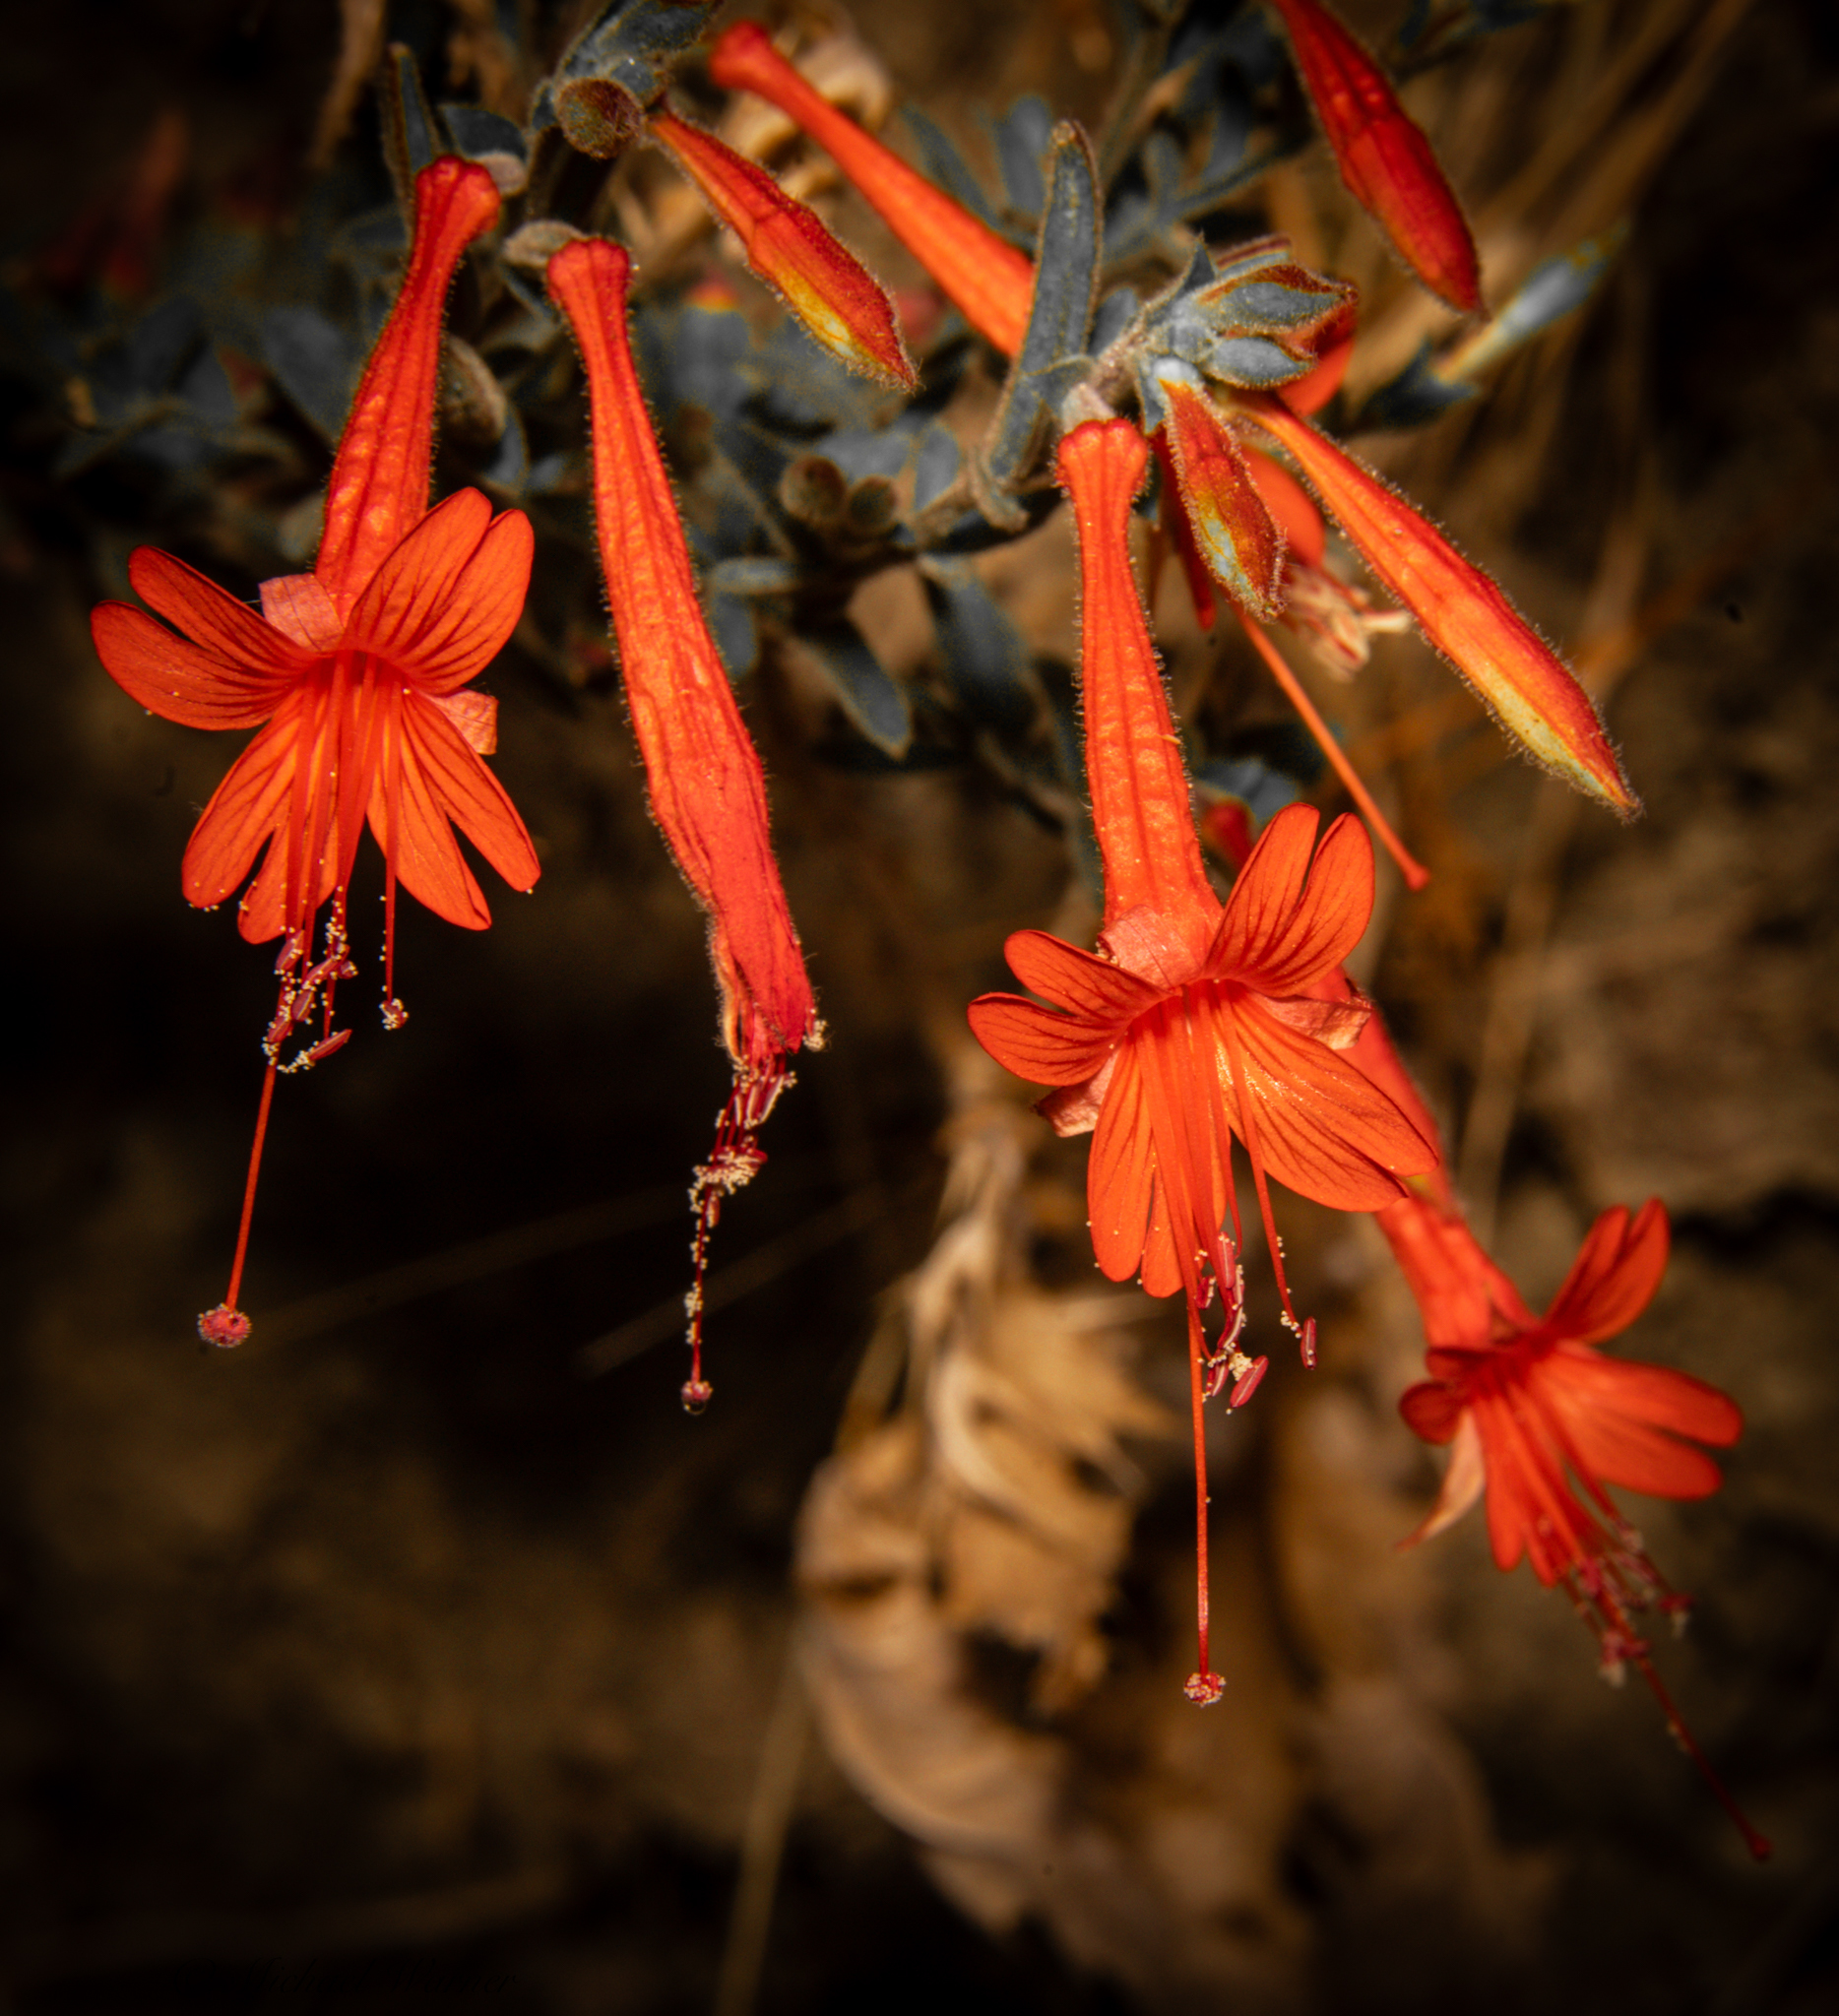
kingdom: Plantae
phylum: Tracheophyta
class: Magnoliopsida
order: Myrtales
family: Onagraceae
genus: Epilobium
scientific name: Epilobium canum
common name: California-fuchsia
